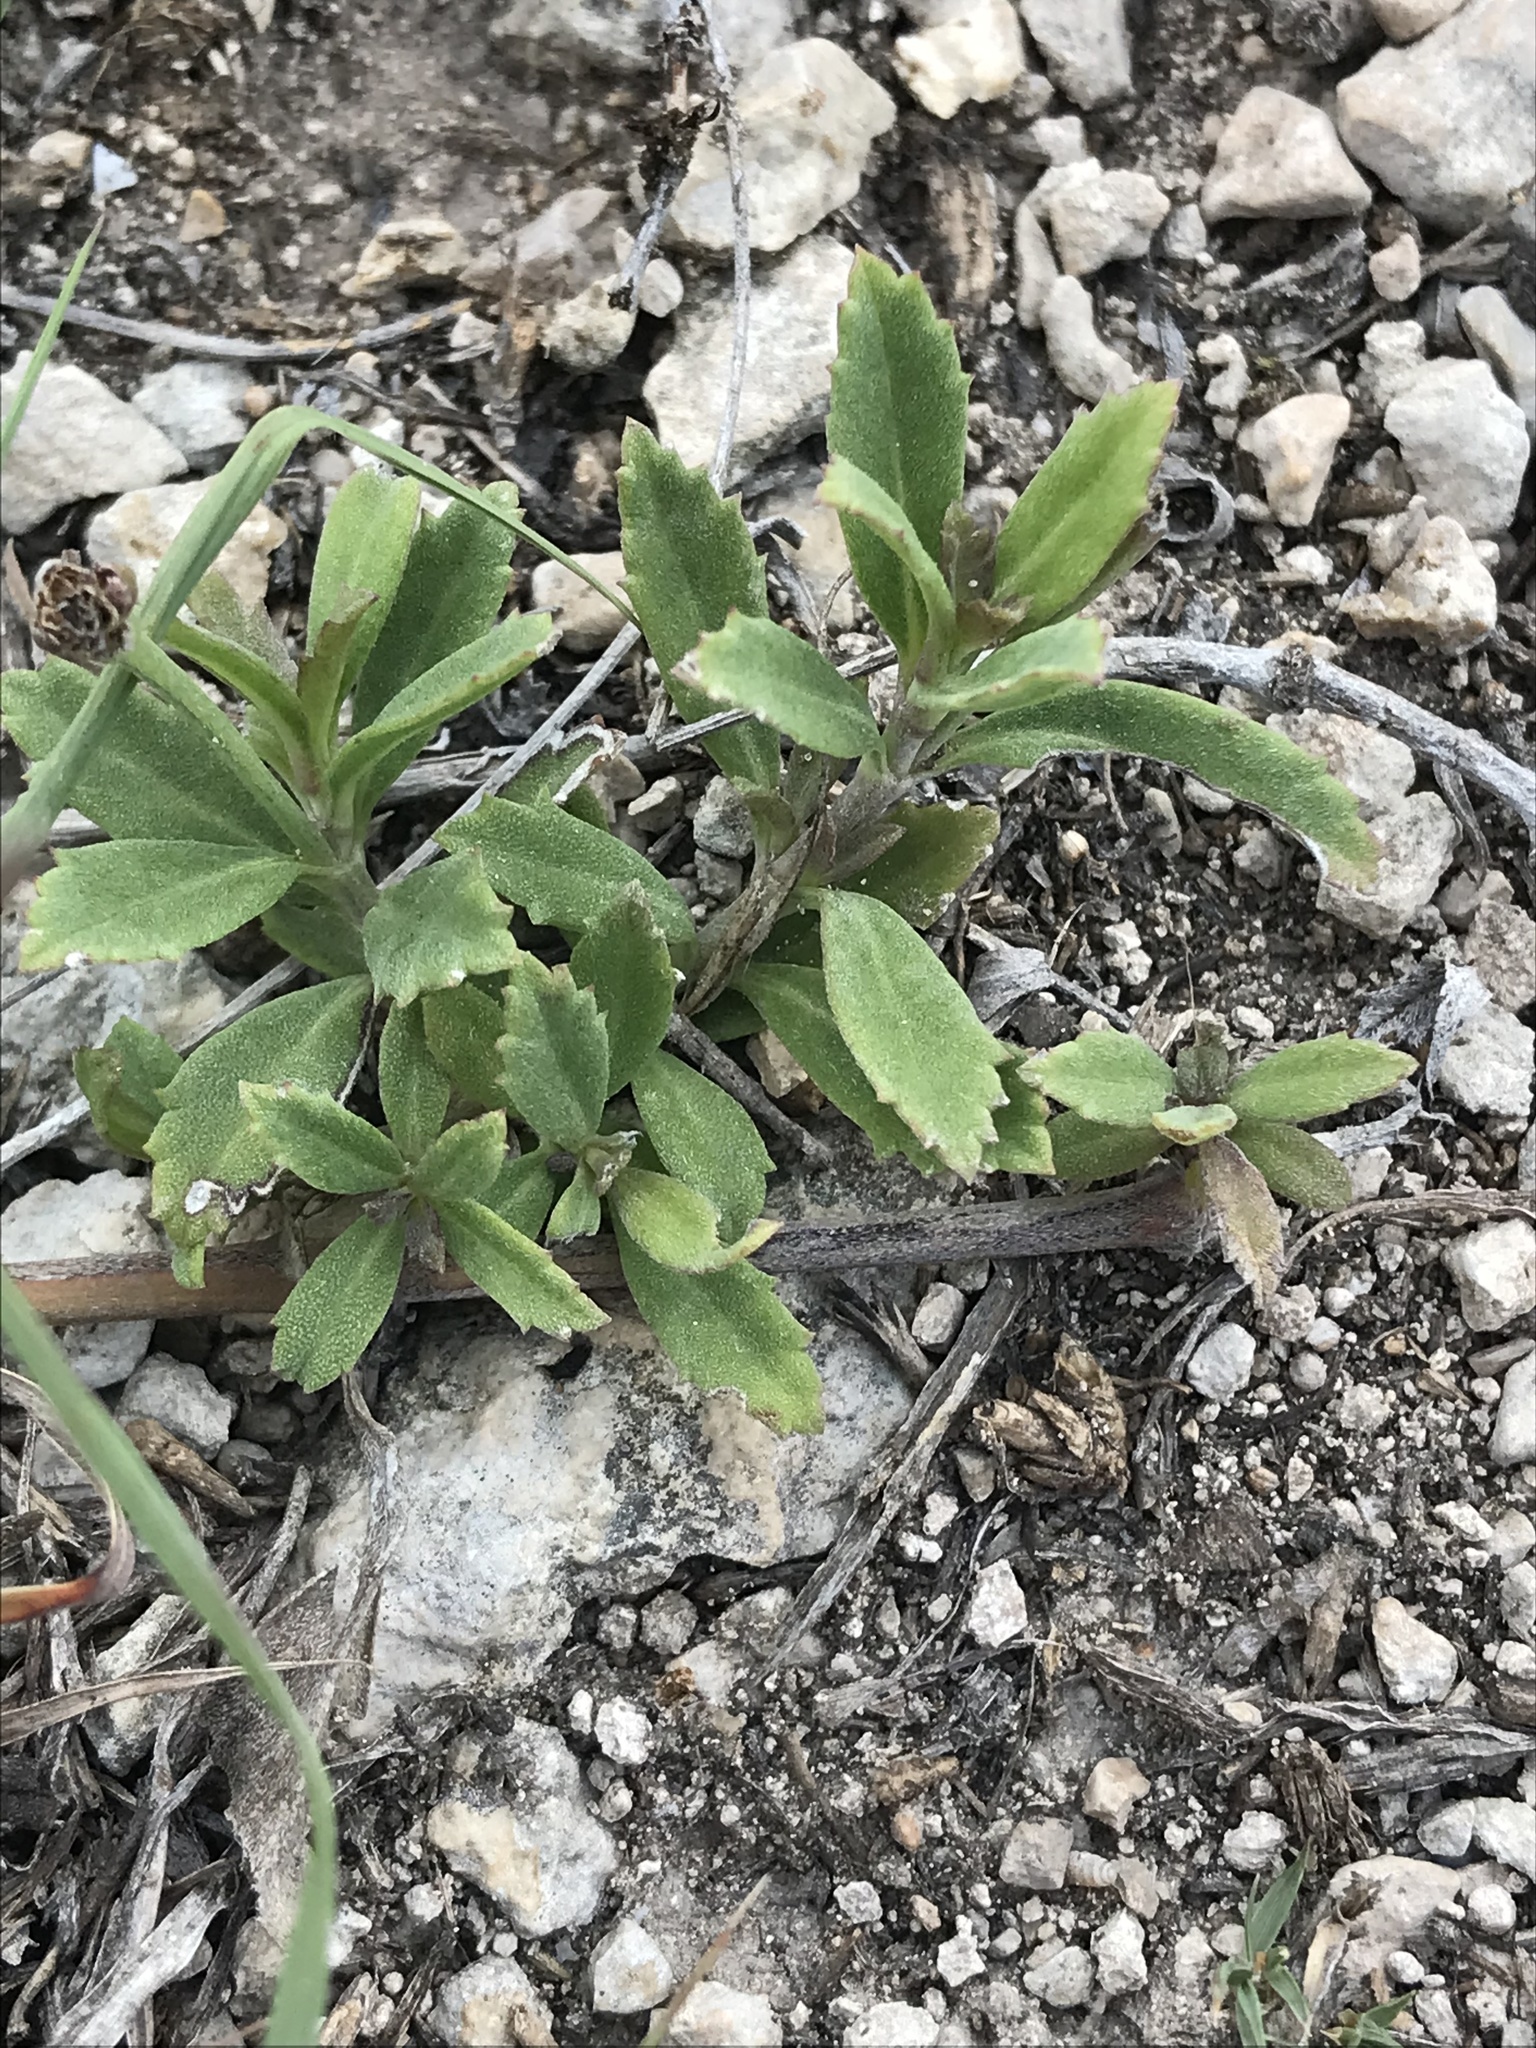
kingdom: Plantae
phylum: Tracheophyta
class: Magnoliopsida
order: Lamiales
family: Verbenaceae
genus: Phyla
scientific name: Phyla nodiflora
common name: Frogfruit
